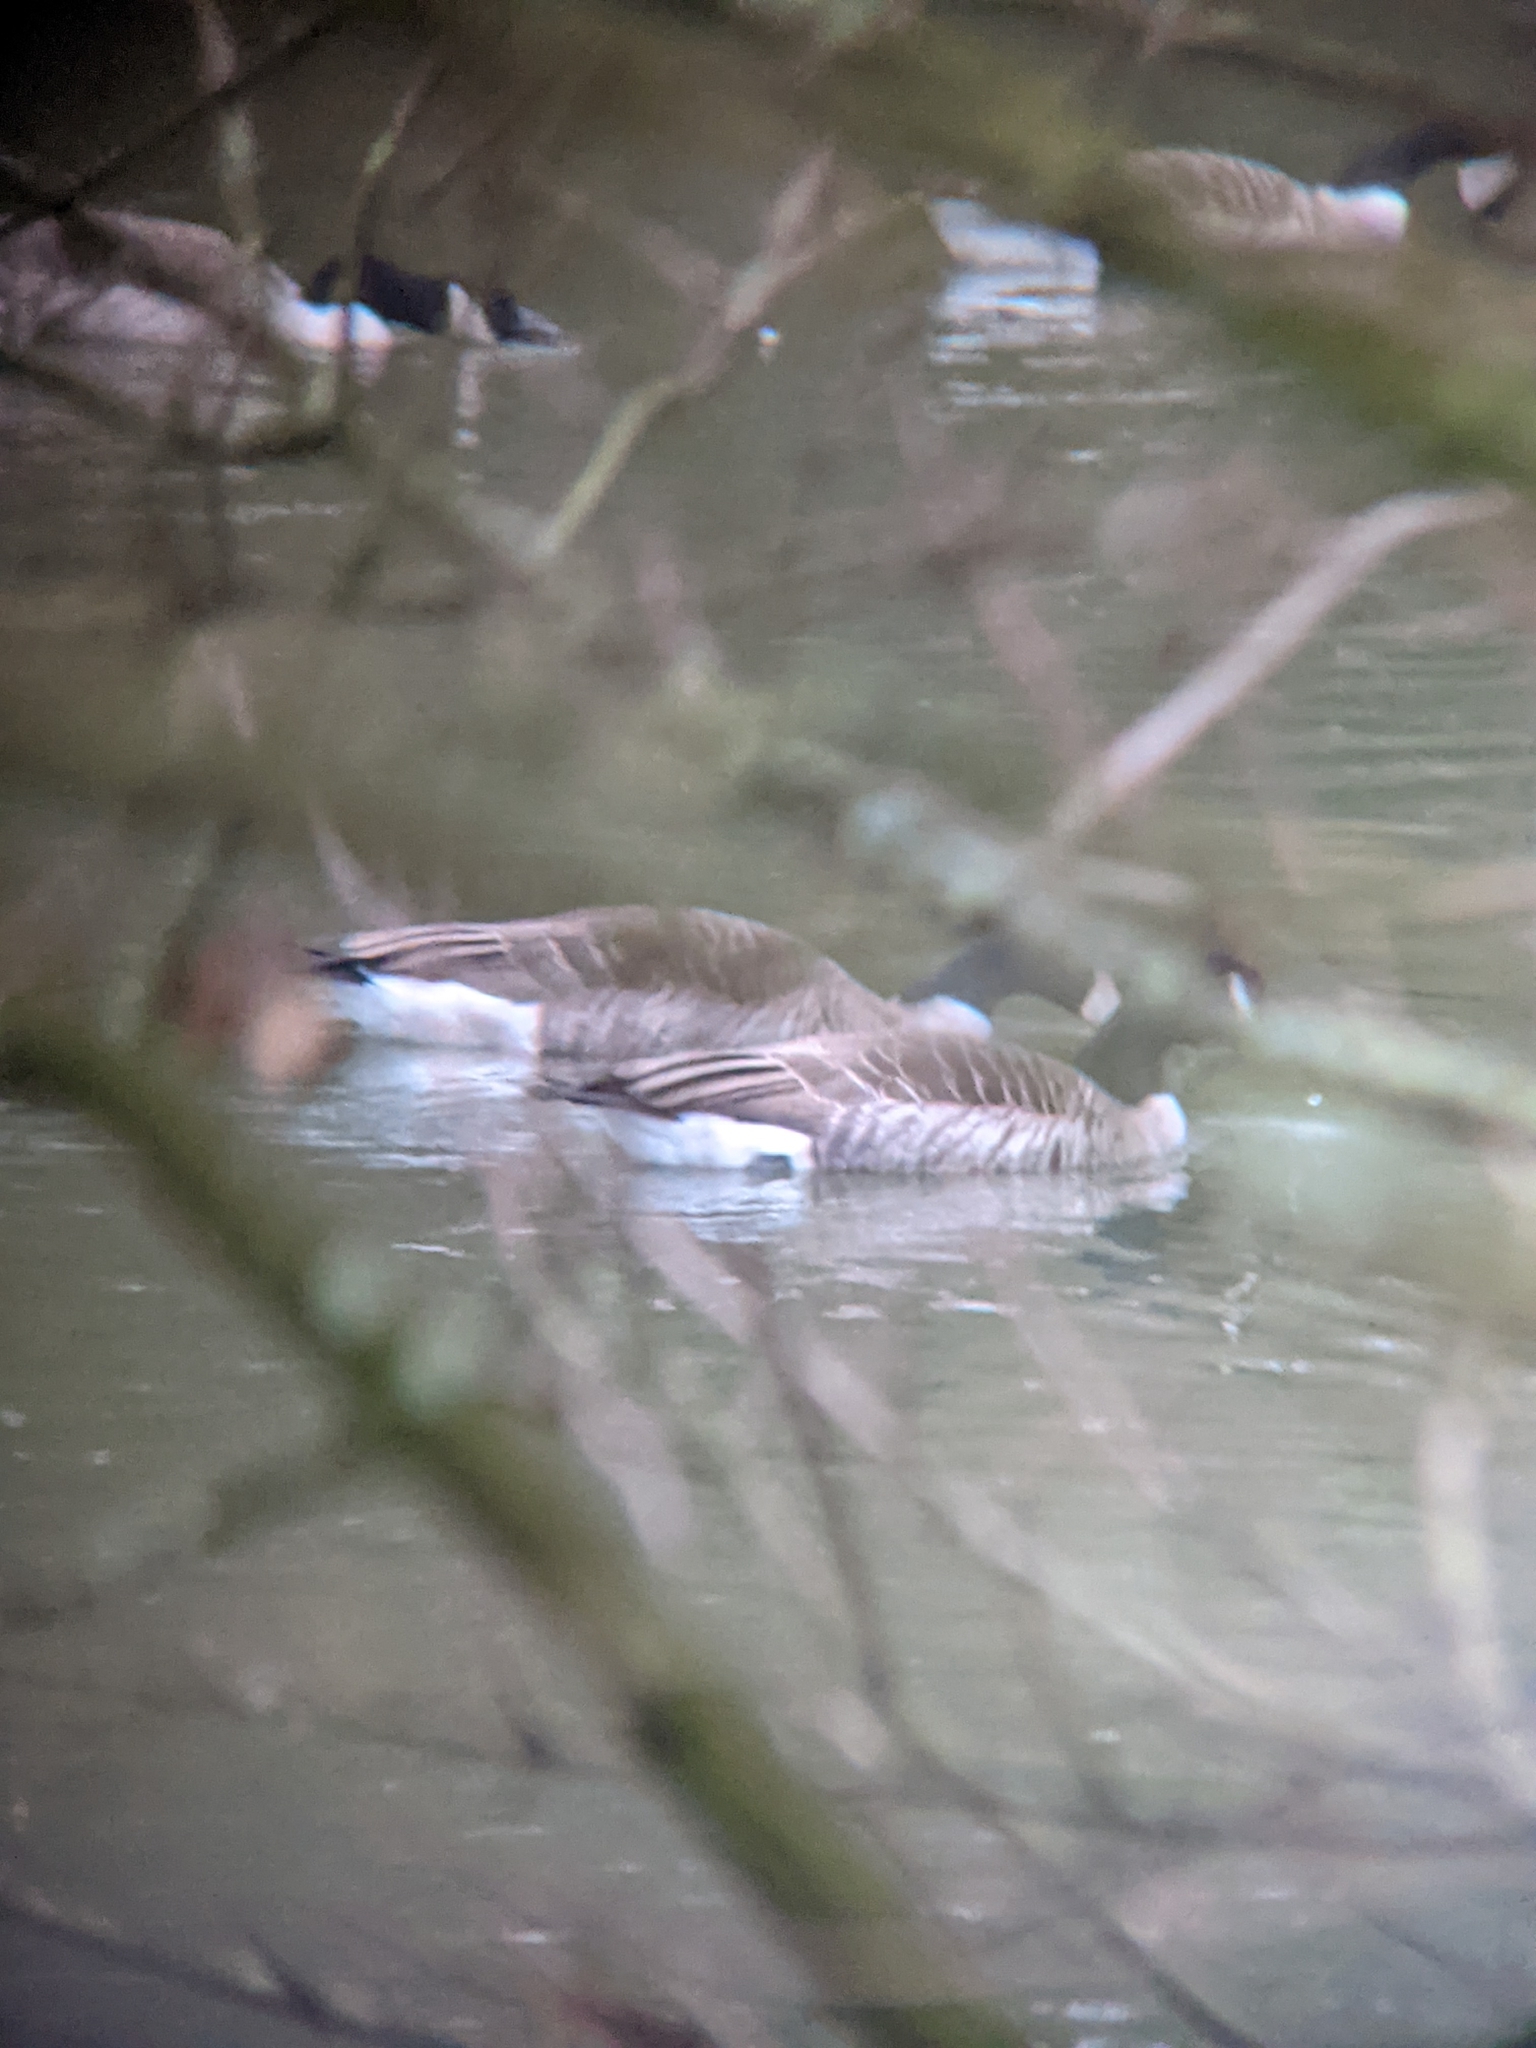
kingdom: Animalia
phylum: Chordata
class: Aves
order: Anseriformes
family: Anatidae
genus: Branta
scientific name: Branta canadensis
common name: Canada goose
